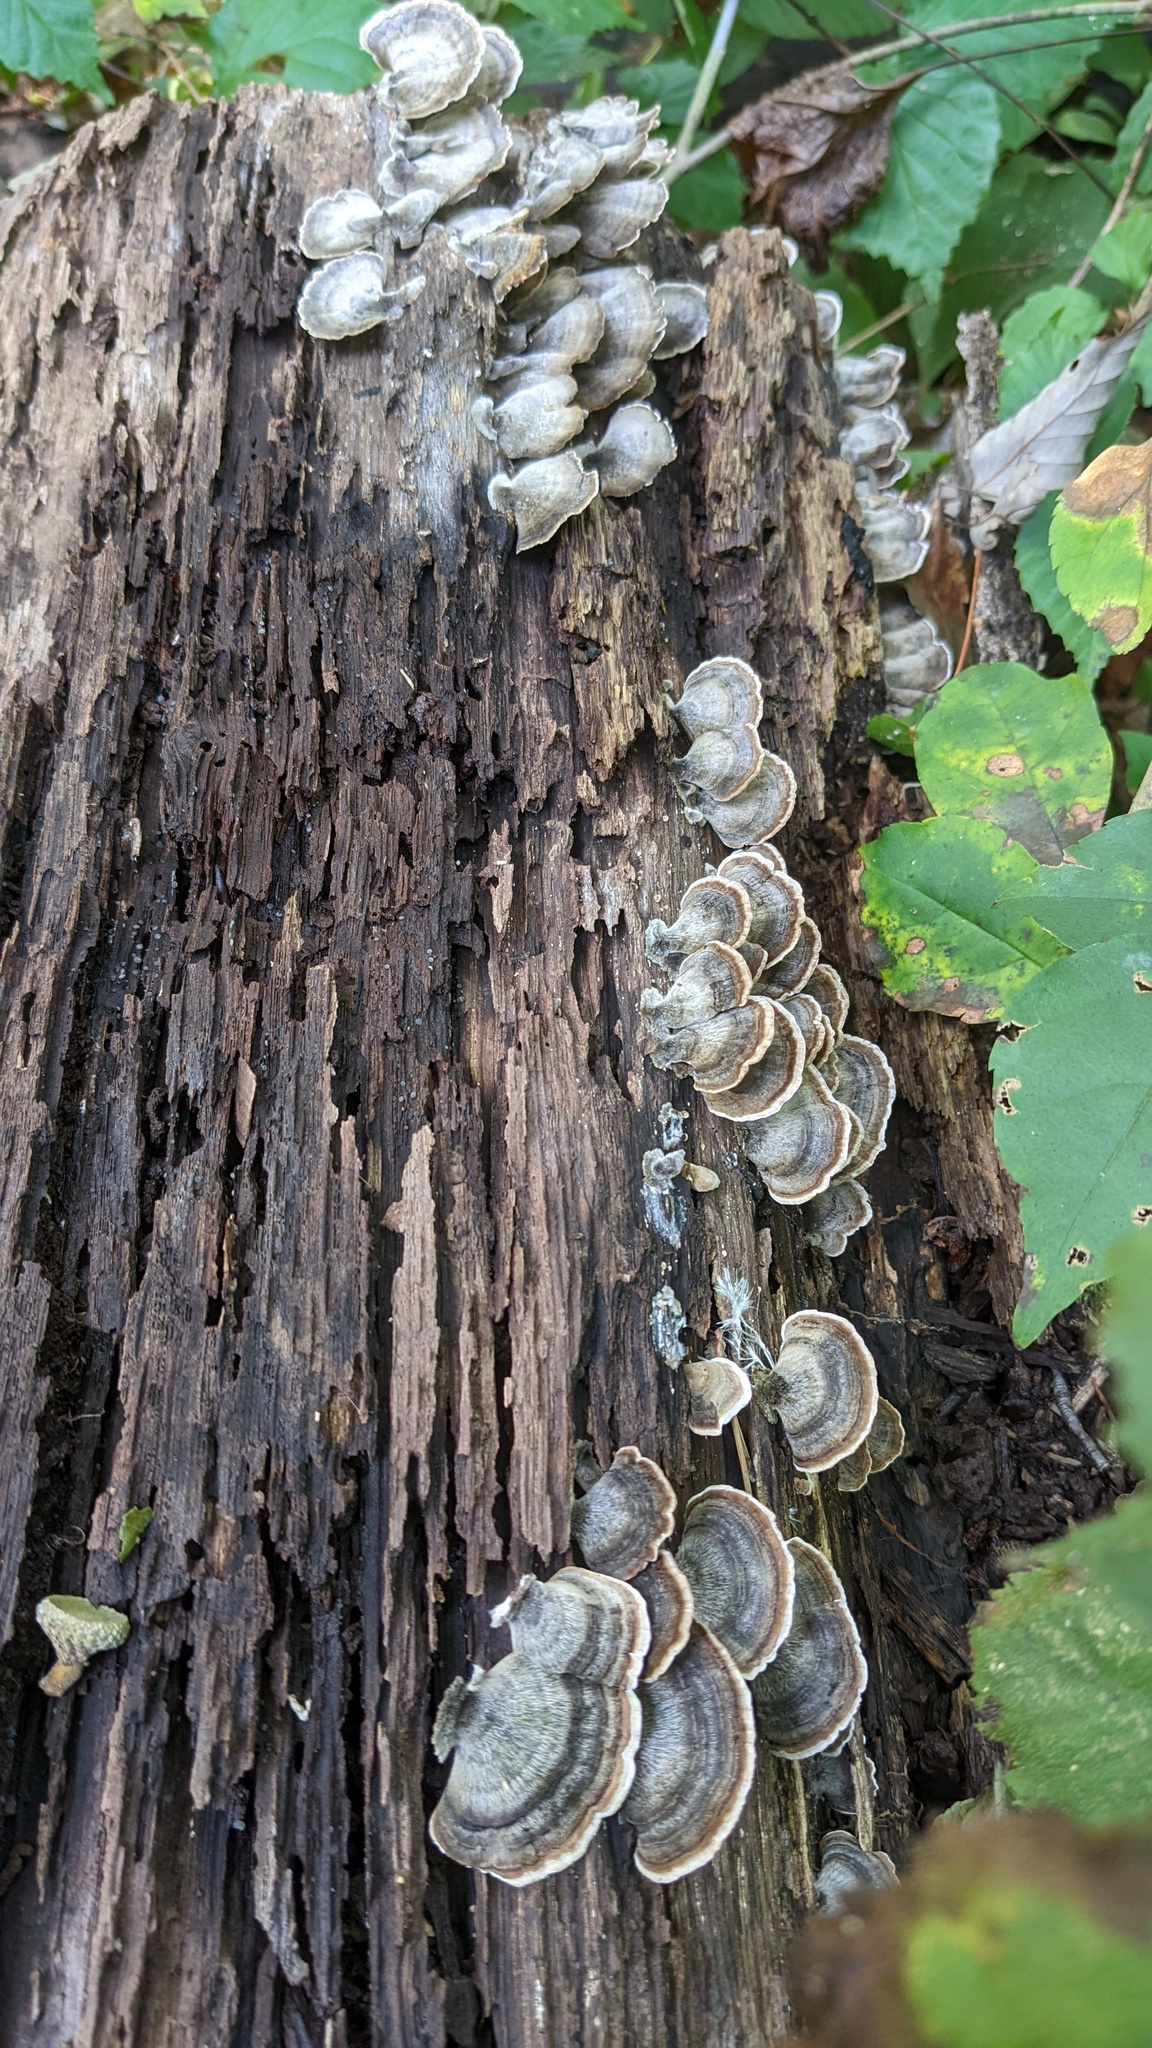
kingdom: Fungi
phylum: Basidiomycota
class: Agaricomycetes
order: Polyporales
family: Polyporaceae
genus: Trametes
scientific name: Trametes versicolor
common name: Turkeytail
